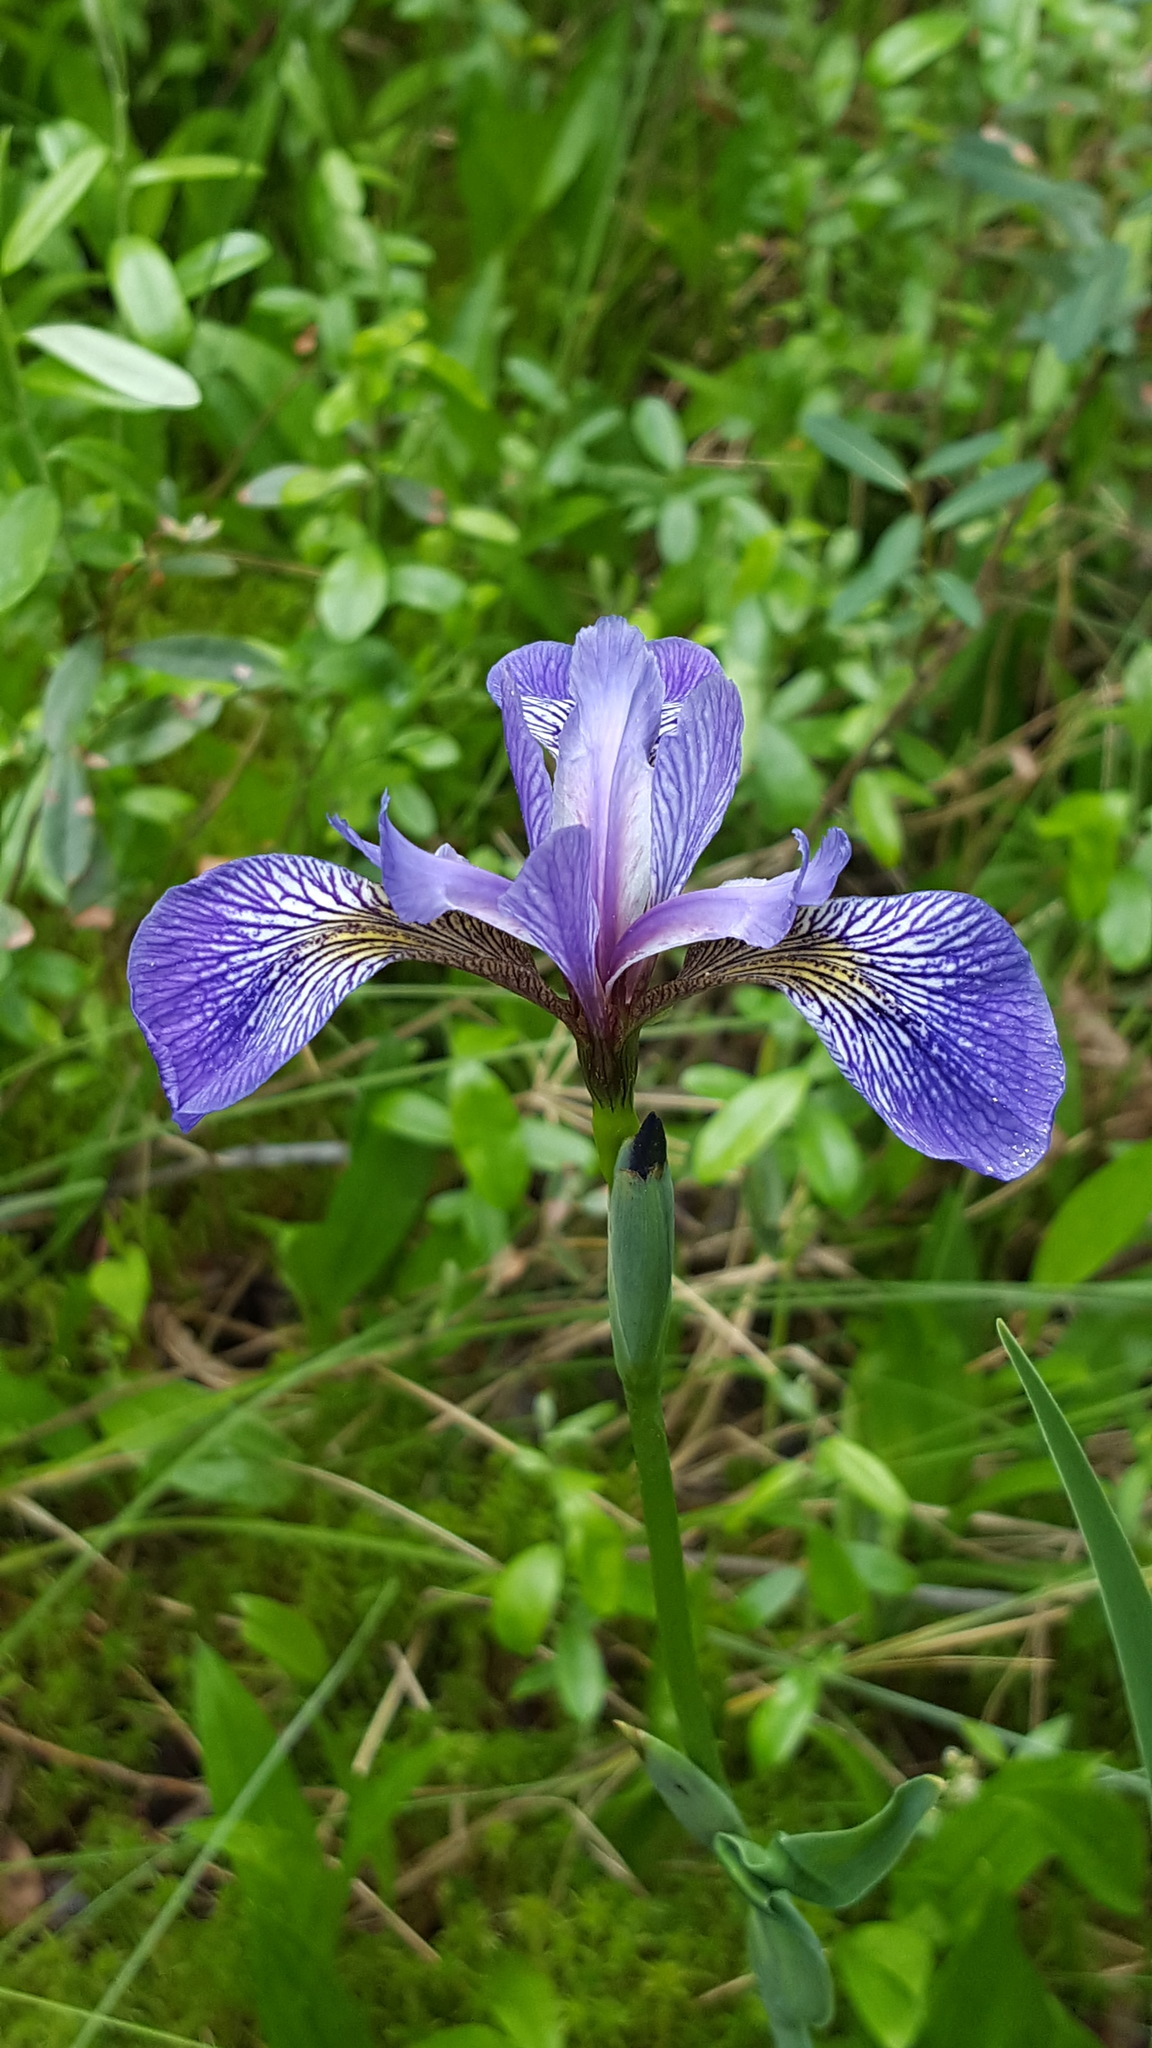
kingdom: Plantae
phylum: Tracheophyta
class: Liliopsida
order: Asparagales
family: Iridaceae
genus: Iris
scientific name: Iris versicolor
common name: Purple iris
